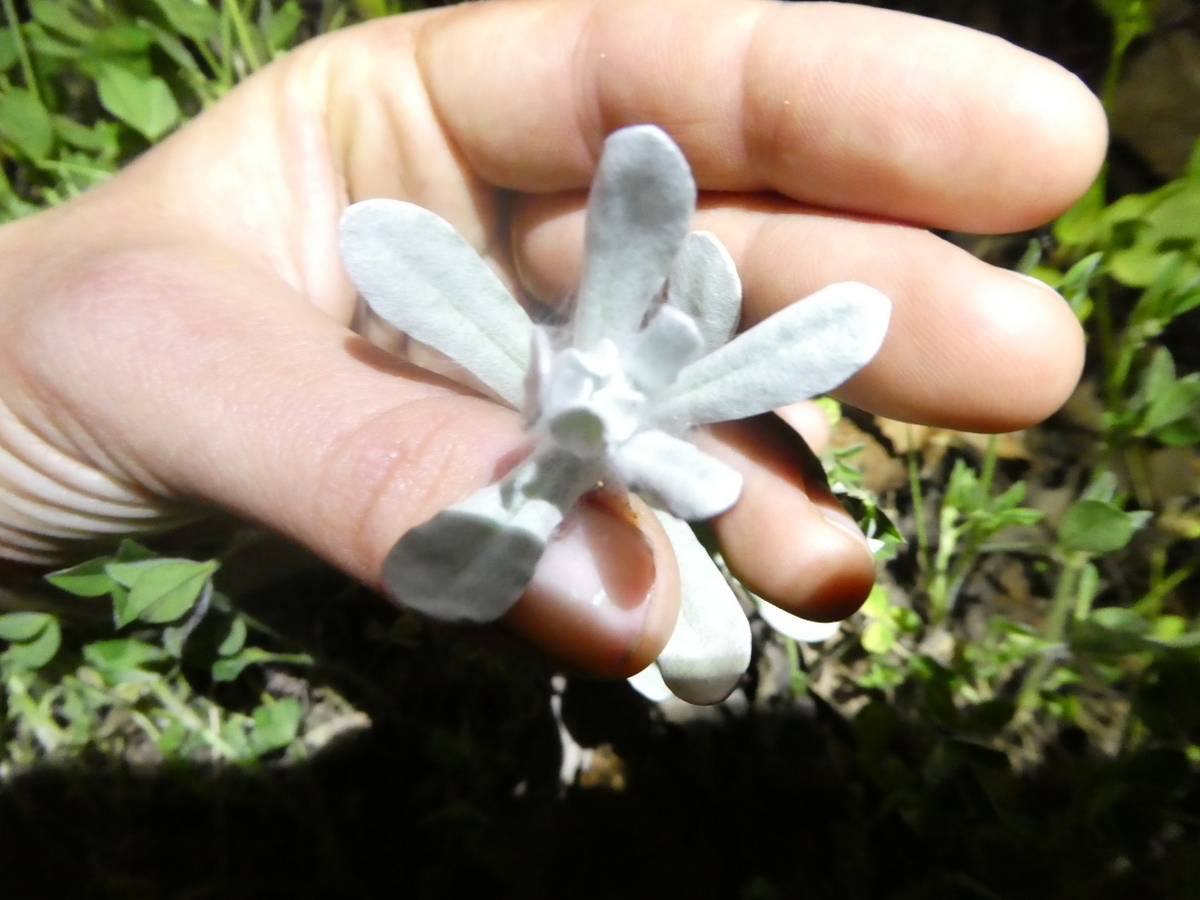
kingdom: Plantae
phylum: Tracheophyta
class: Magnoliopsida
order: Asterales
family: Asteraceae
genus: Helichrysum
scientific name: Helichrysum luteoalbum
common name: Daisy
